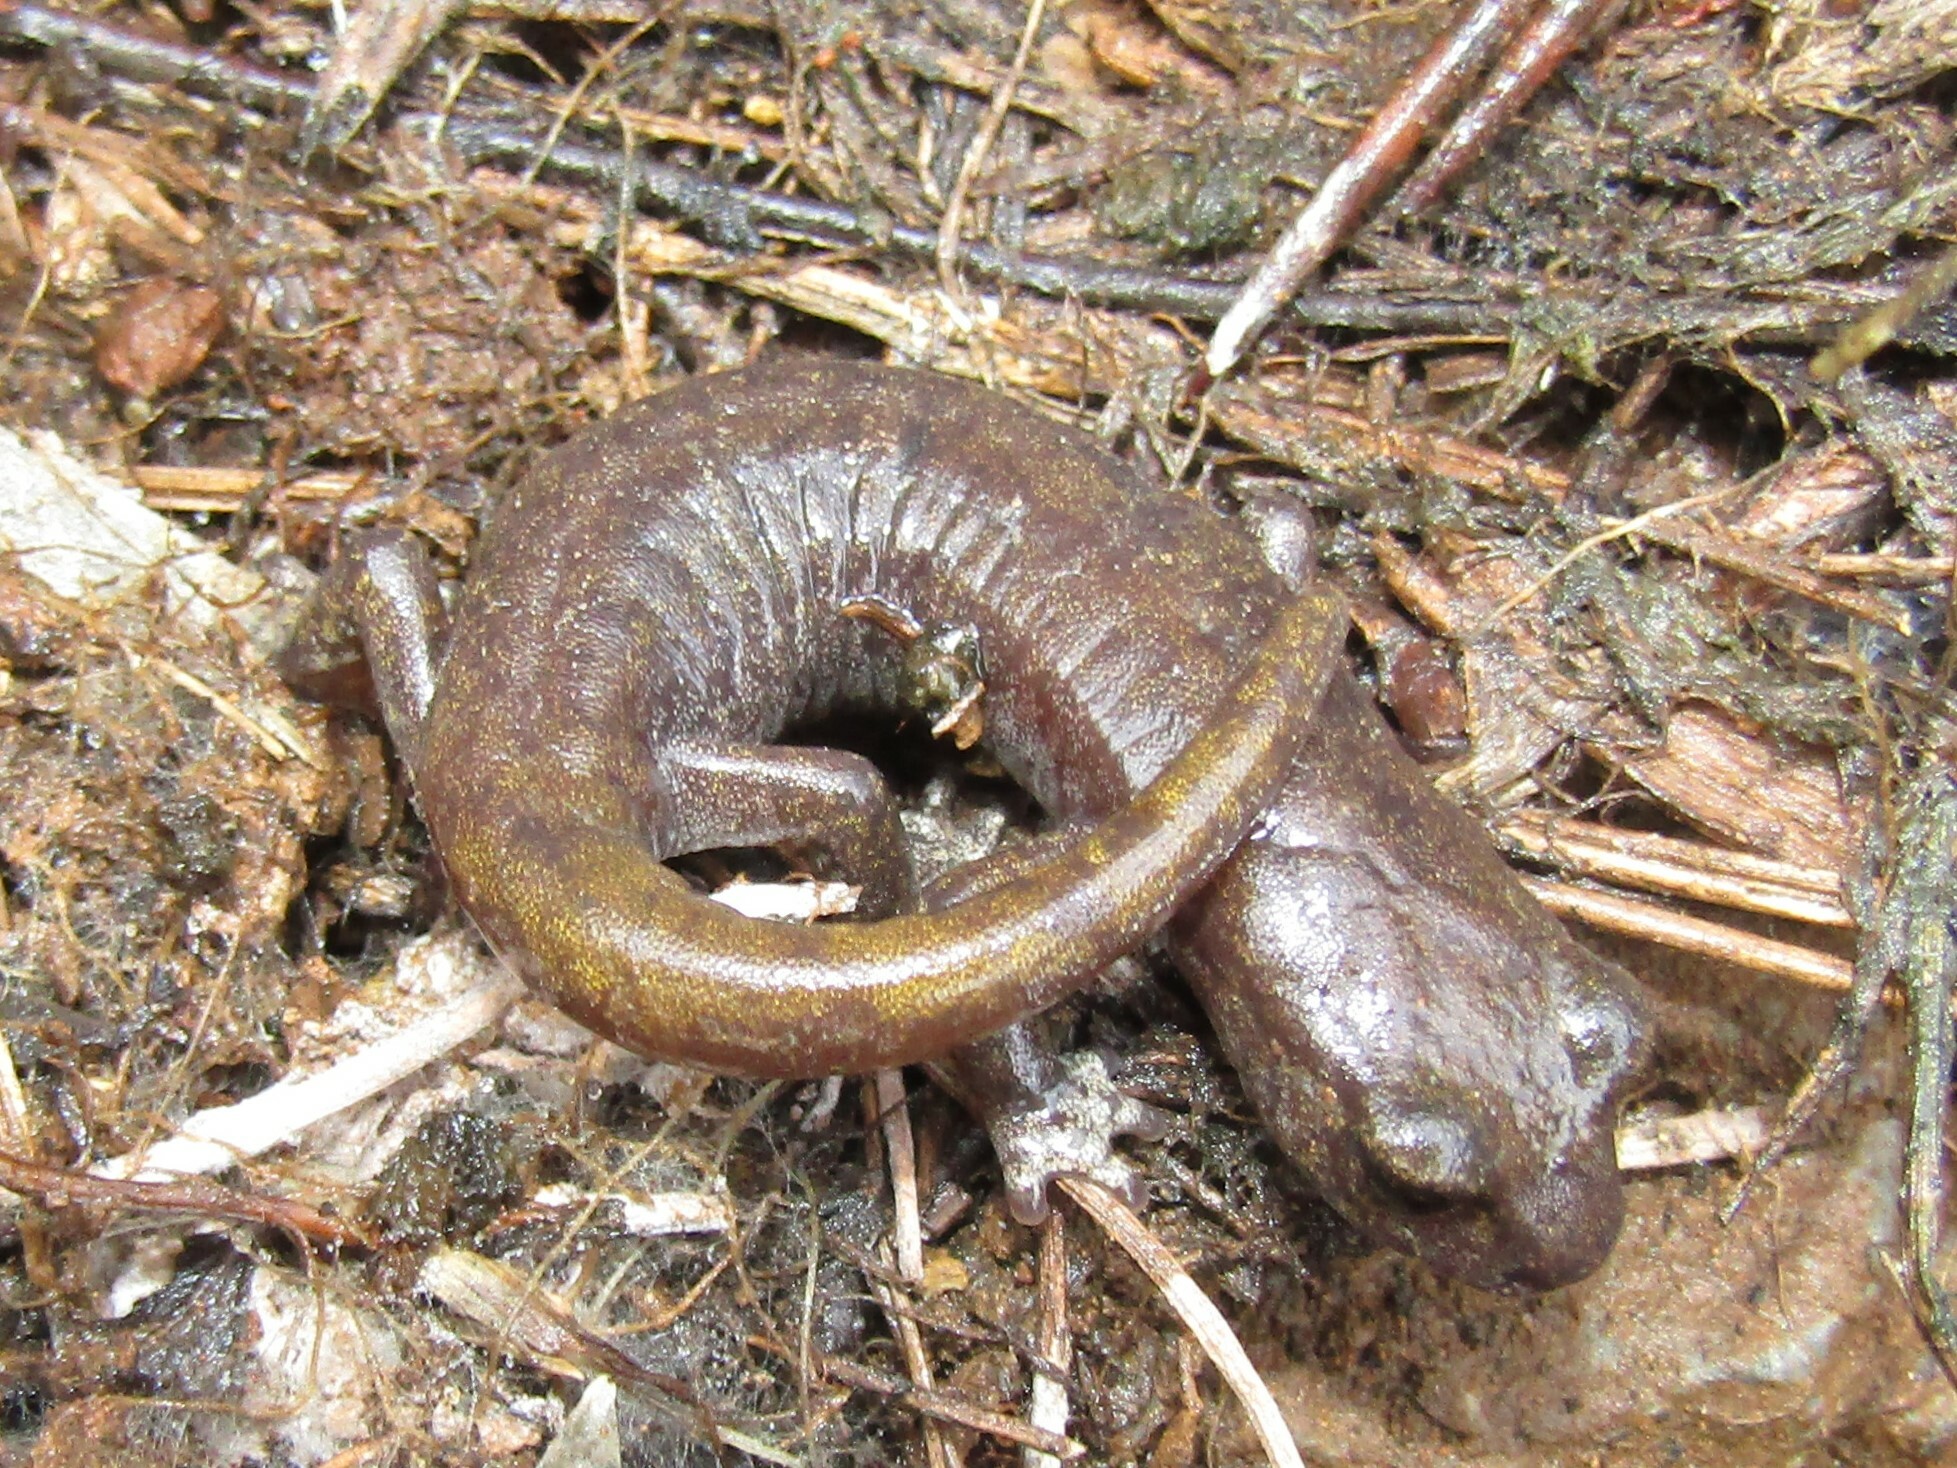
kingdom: Animalia
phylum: Chordata
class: Amphibia
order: Caudata
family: Plethodontidae
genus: Hydromantes
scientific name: Hydromantes samweli
